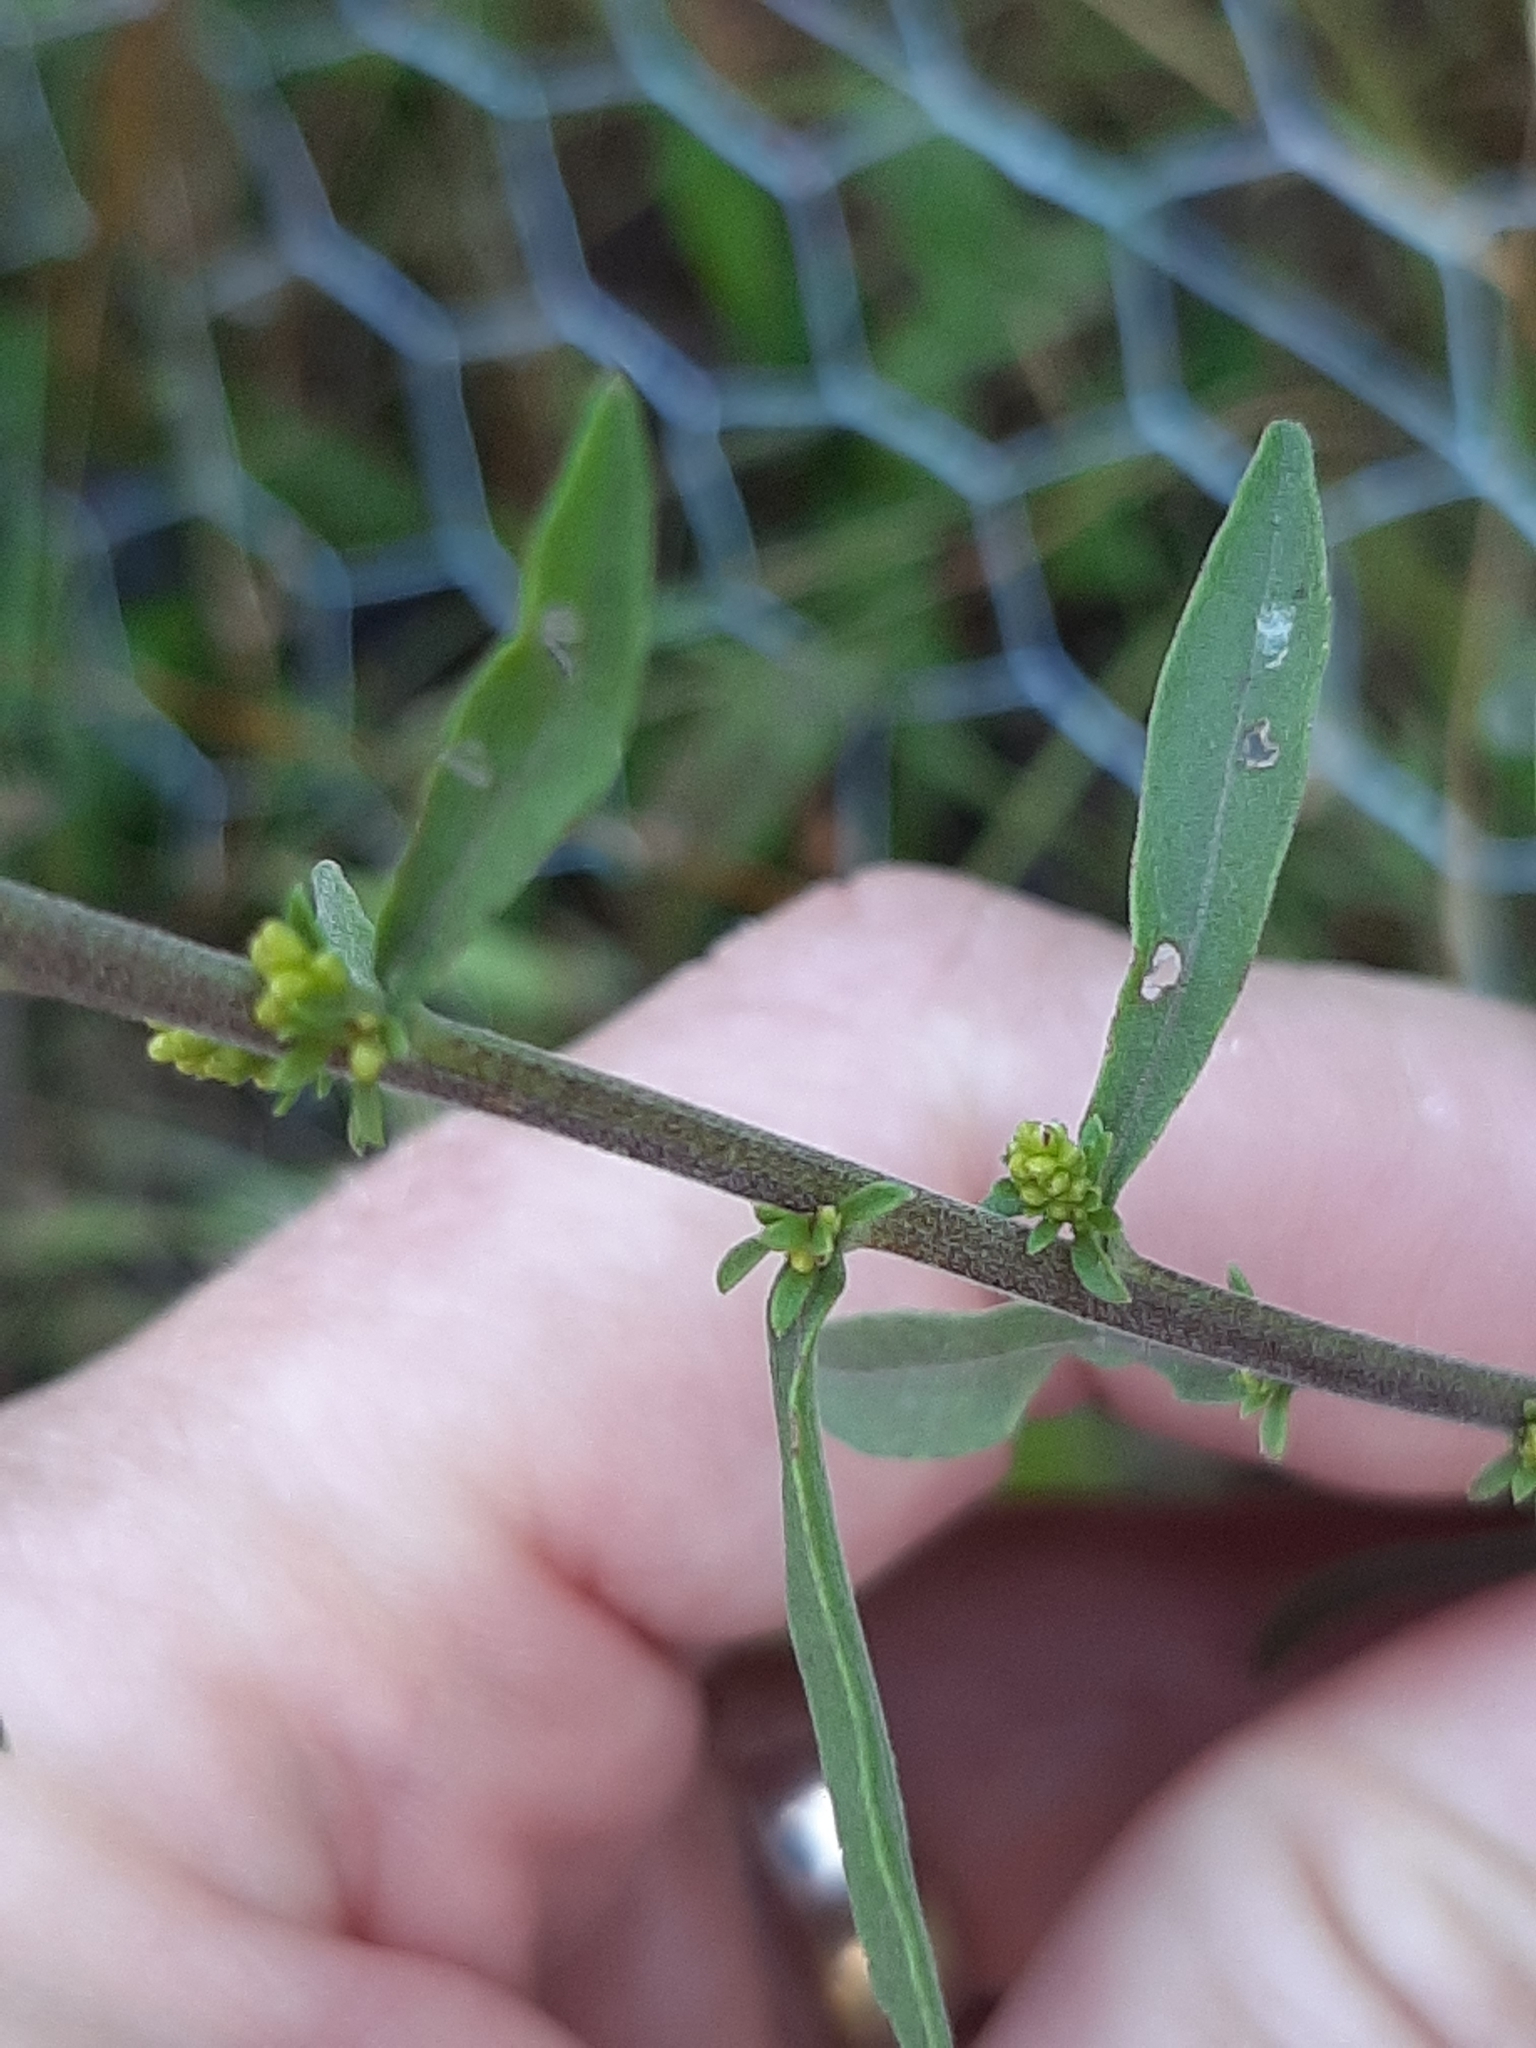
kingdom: Plantae
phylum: Tracheophyta
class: Magnoliopsida
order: Asterales
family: Asteraceae
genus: Solidago
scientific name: Solidago nemoralis
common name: Grey goldenrod
